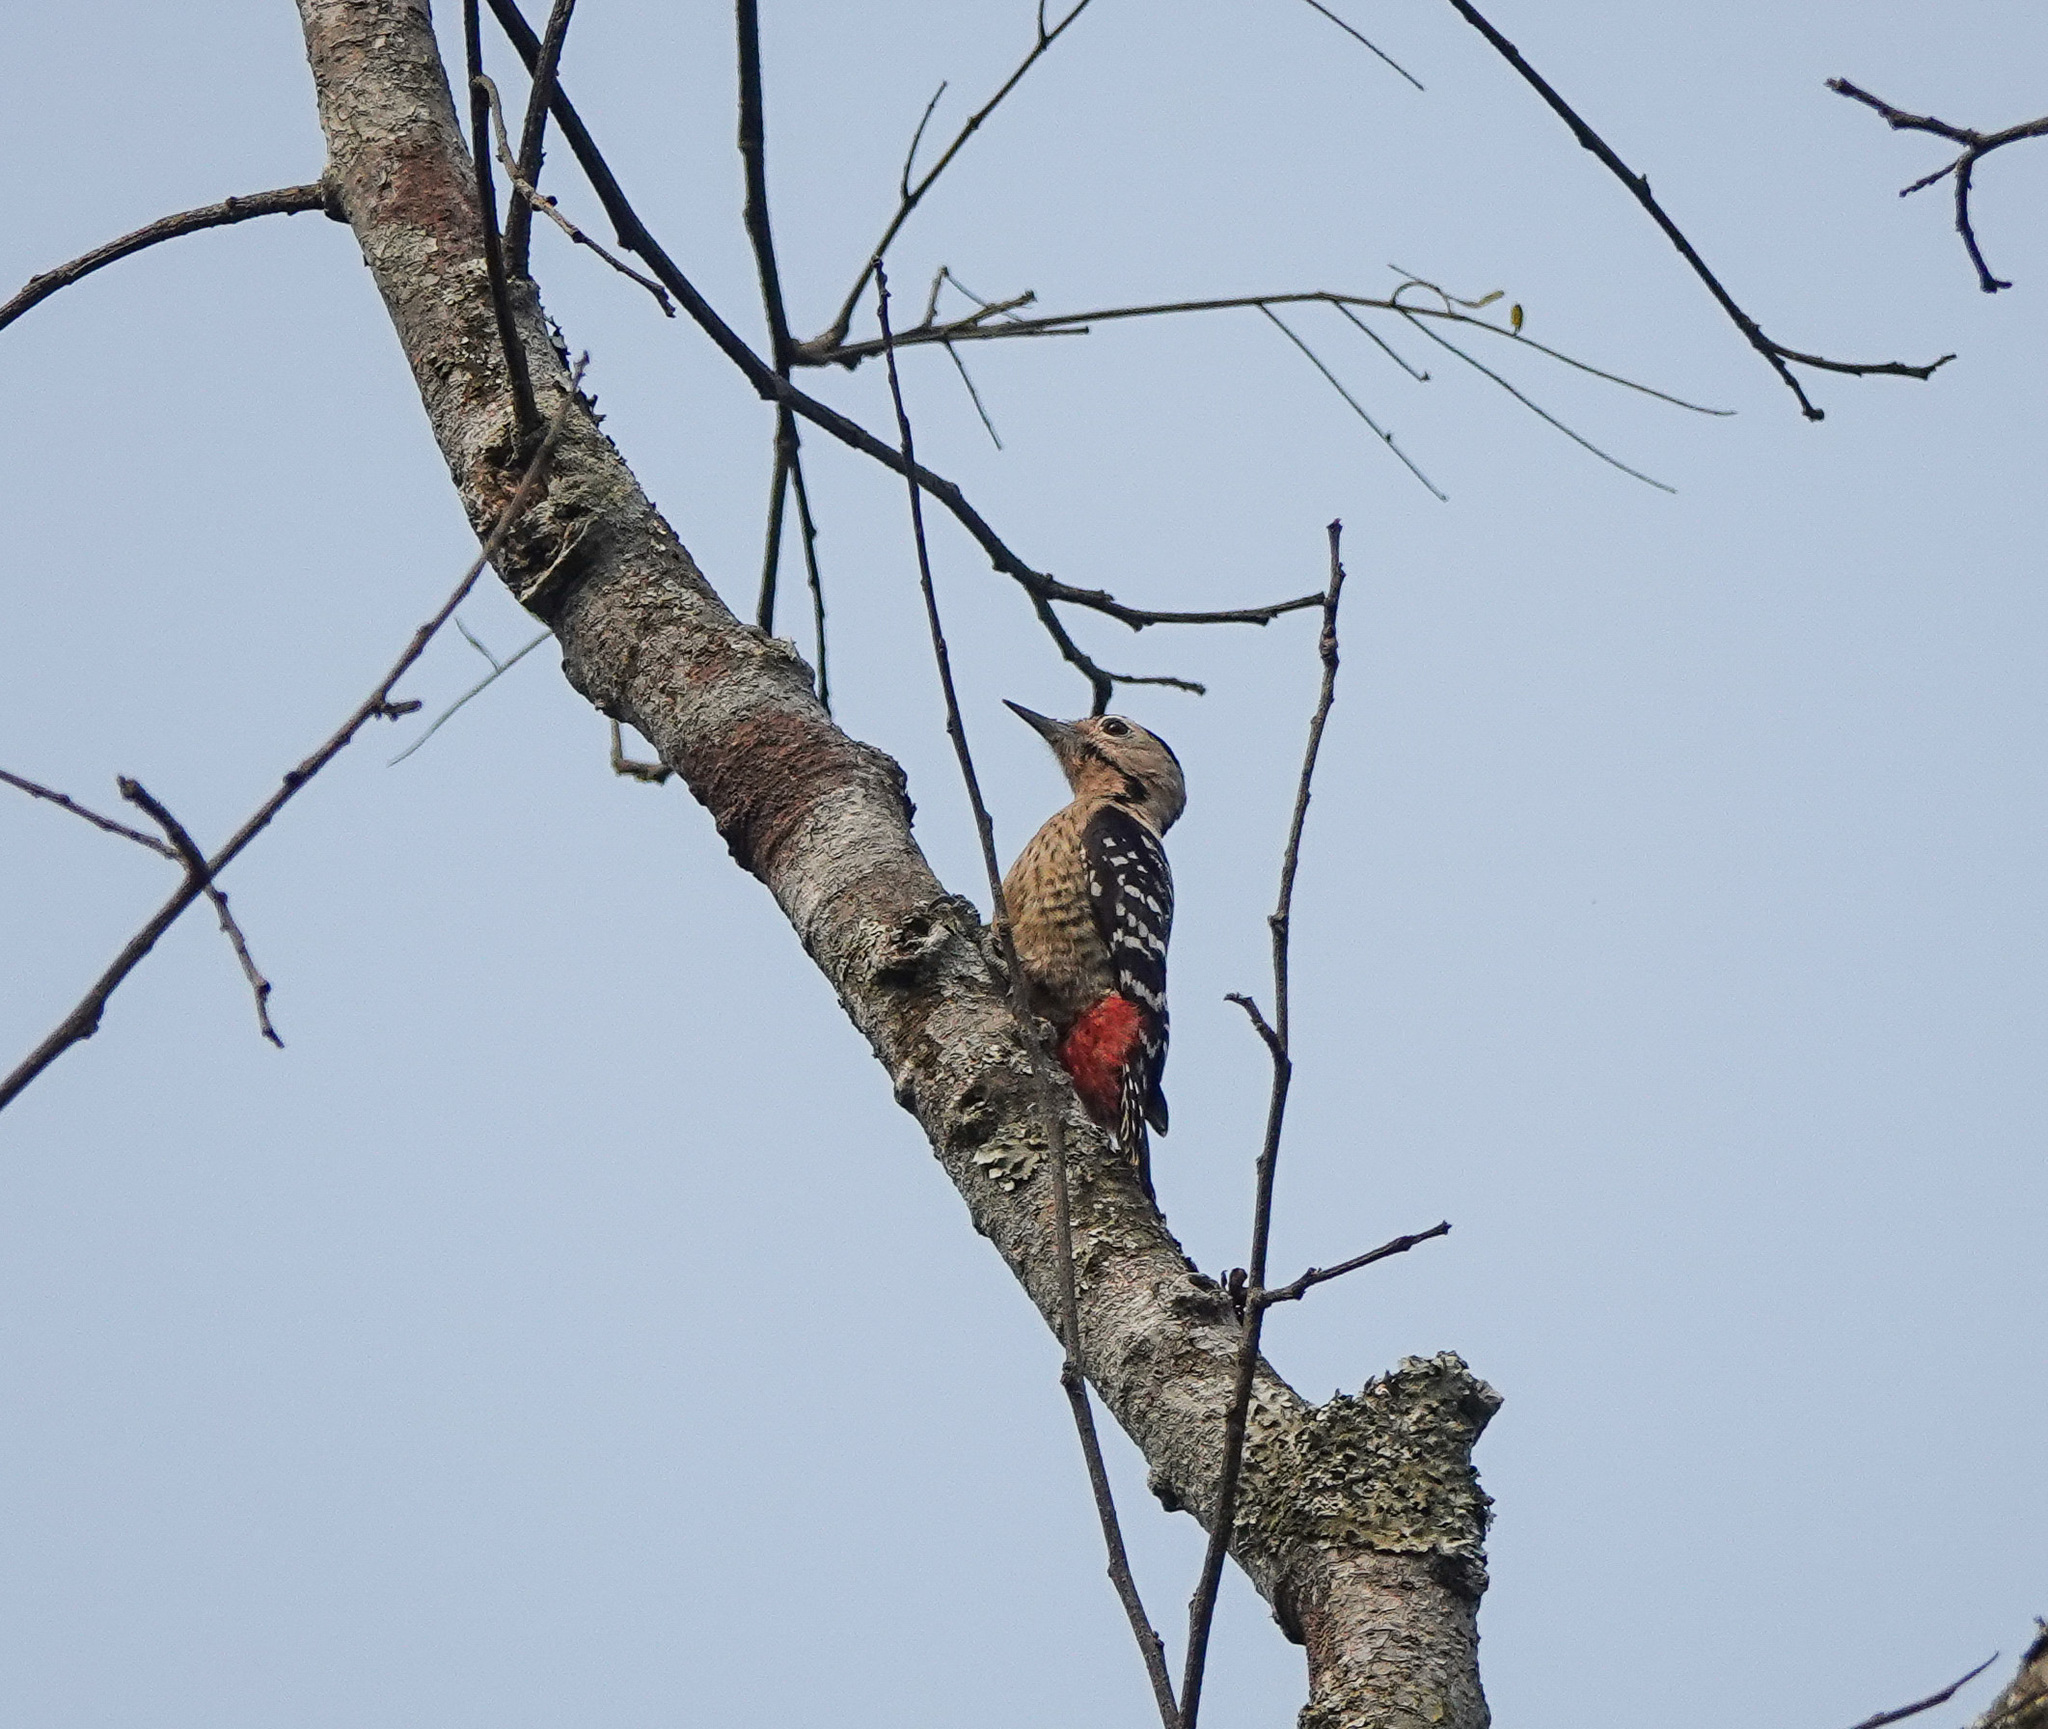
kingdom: Animalia
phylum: Chordata
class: Aves
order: Piciformes
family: Picidae
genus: Dendrocopos
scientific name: Dendrocopos macei
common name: Fulvous-breasted woodpecker
